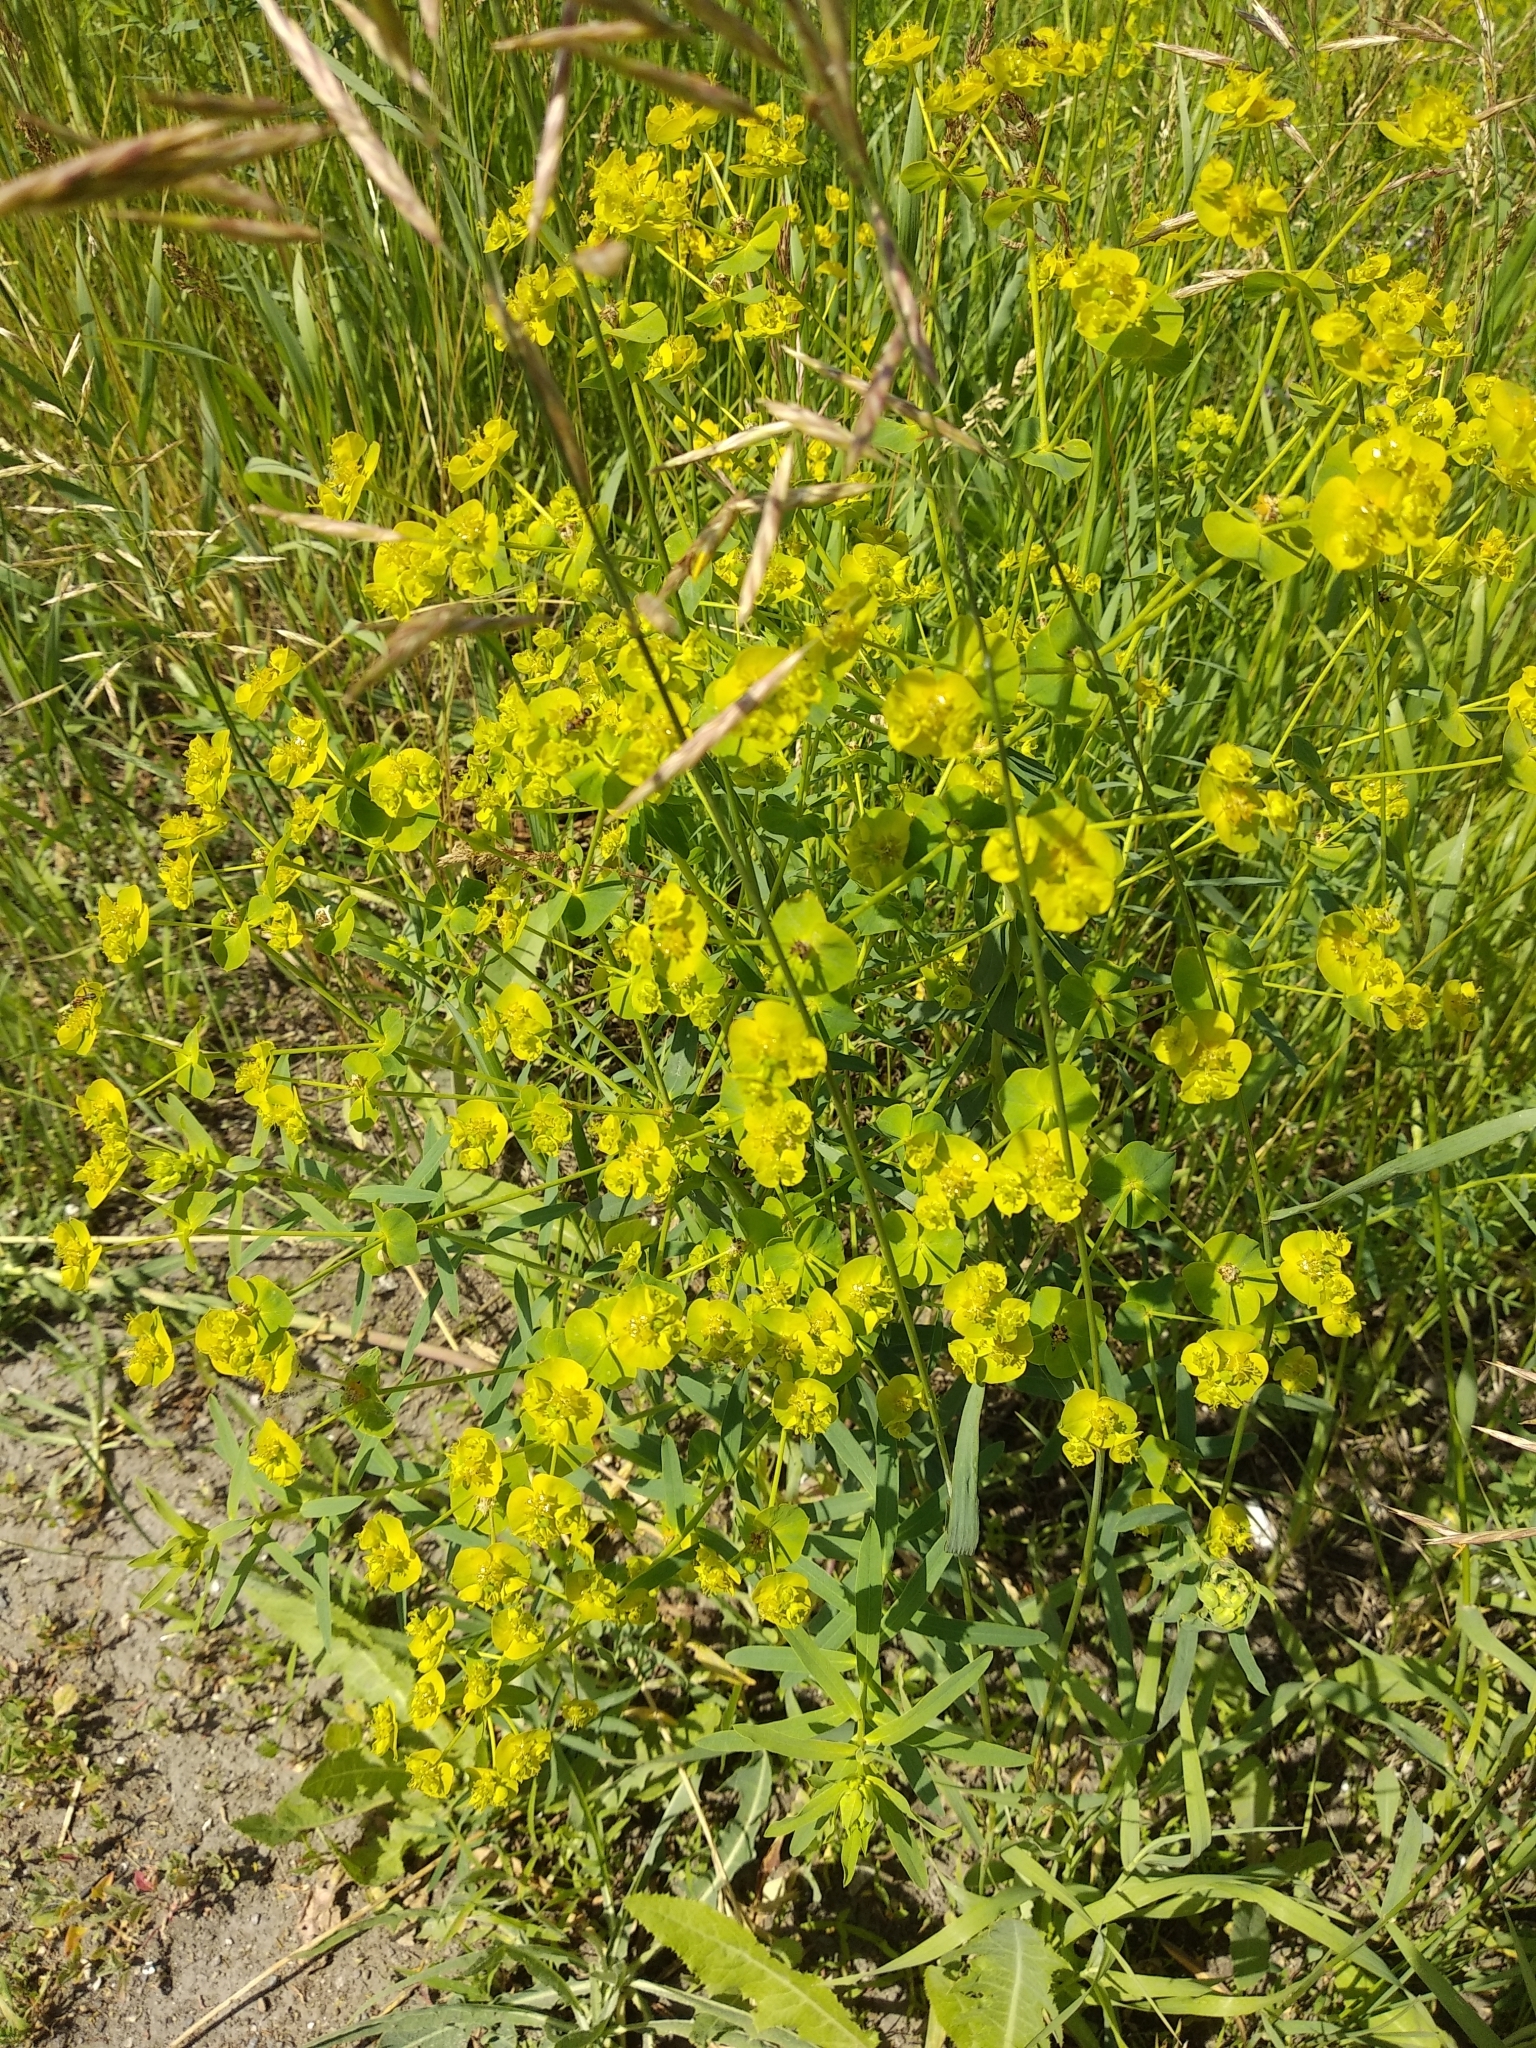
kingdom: Plantae
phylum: Tracheophyta
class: Magnoliopsida
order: Malpighiales
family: Euphorbiaceae
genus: Euphorbia
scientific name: Euphorbia virgata
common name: Leafy spurge
